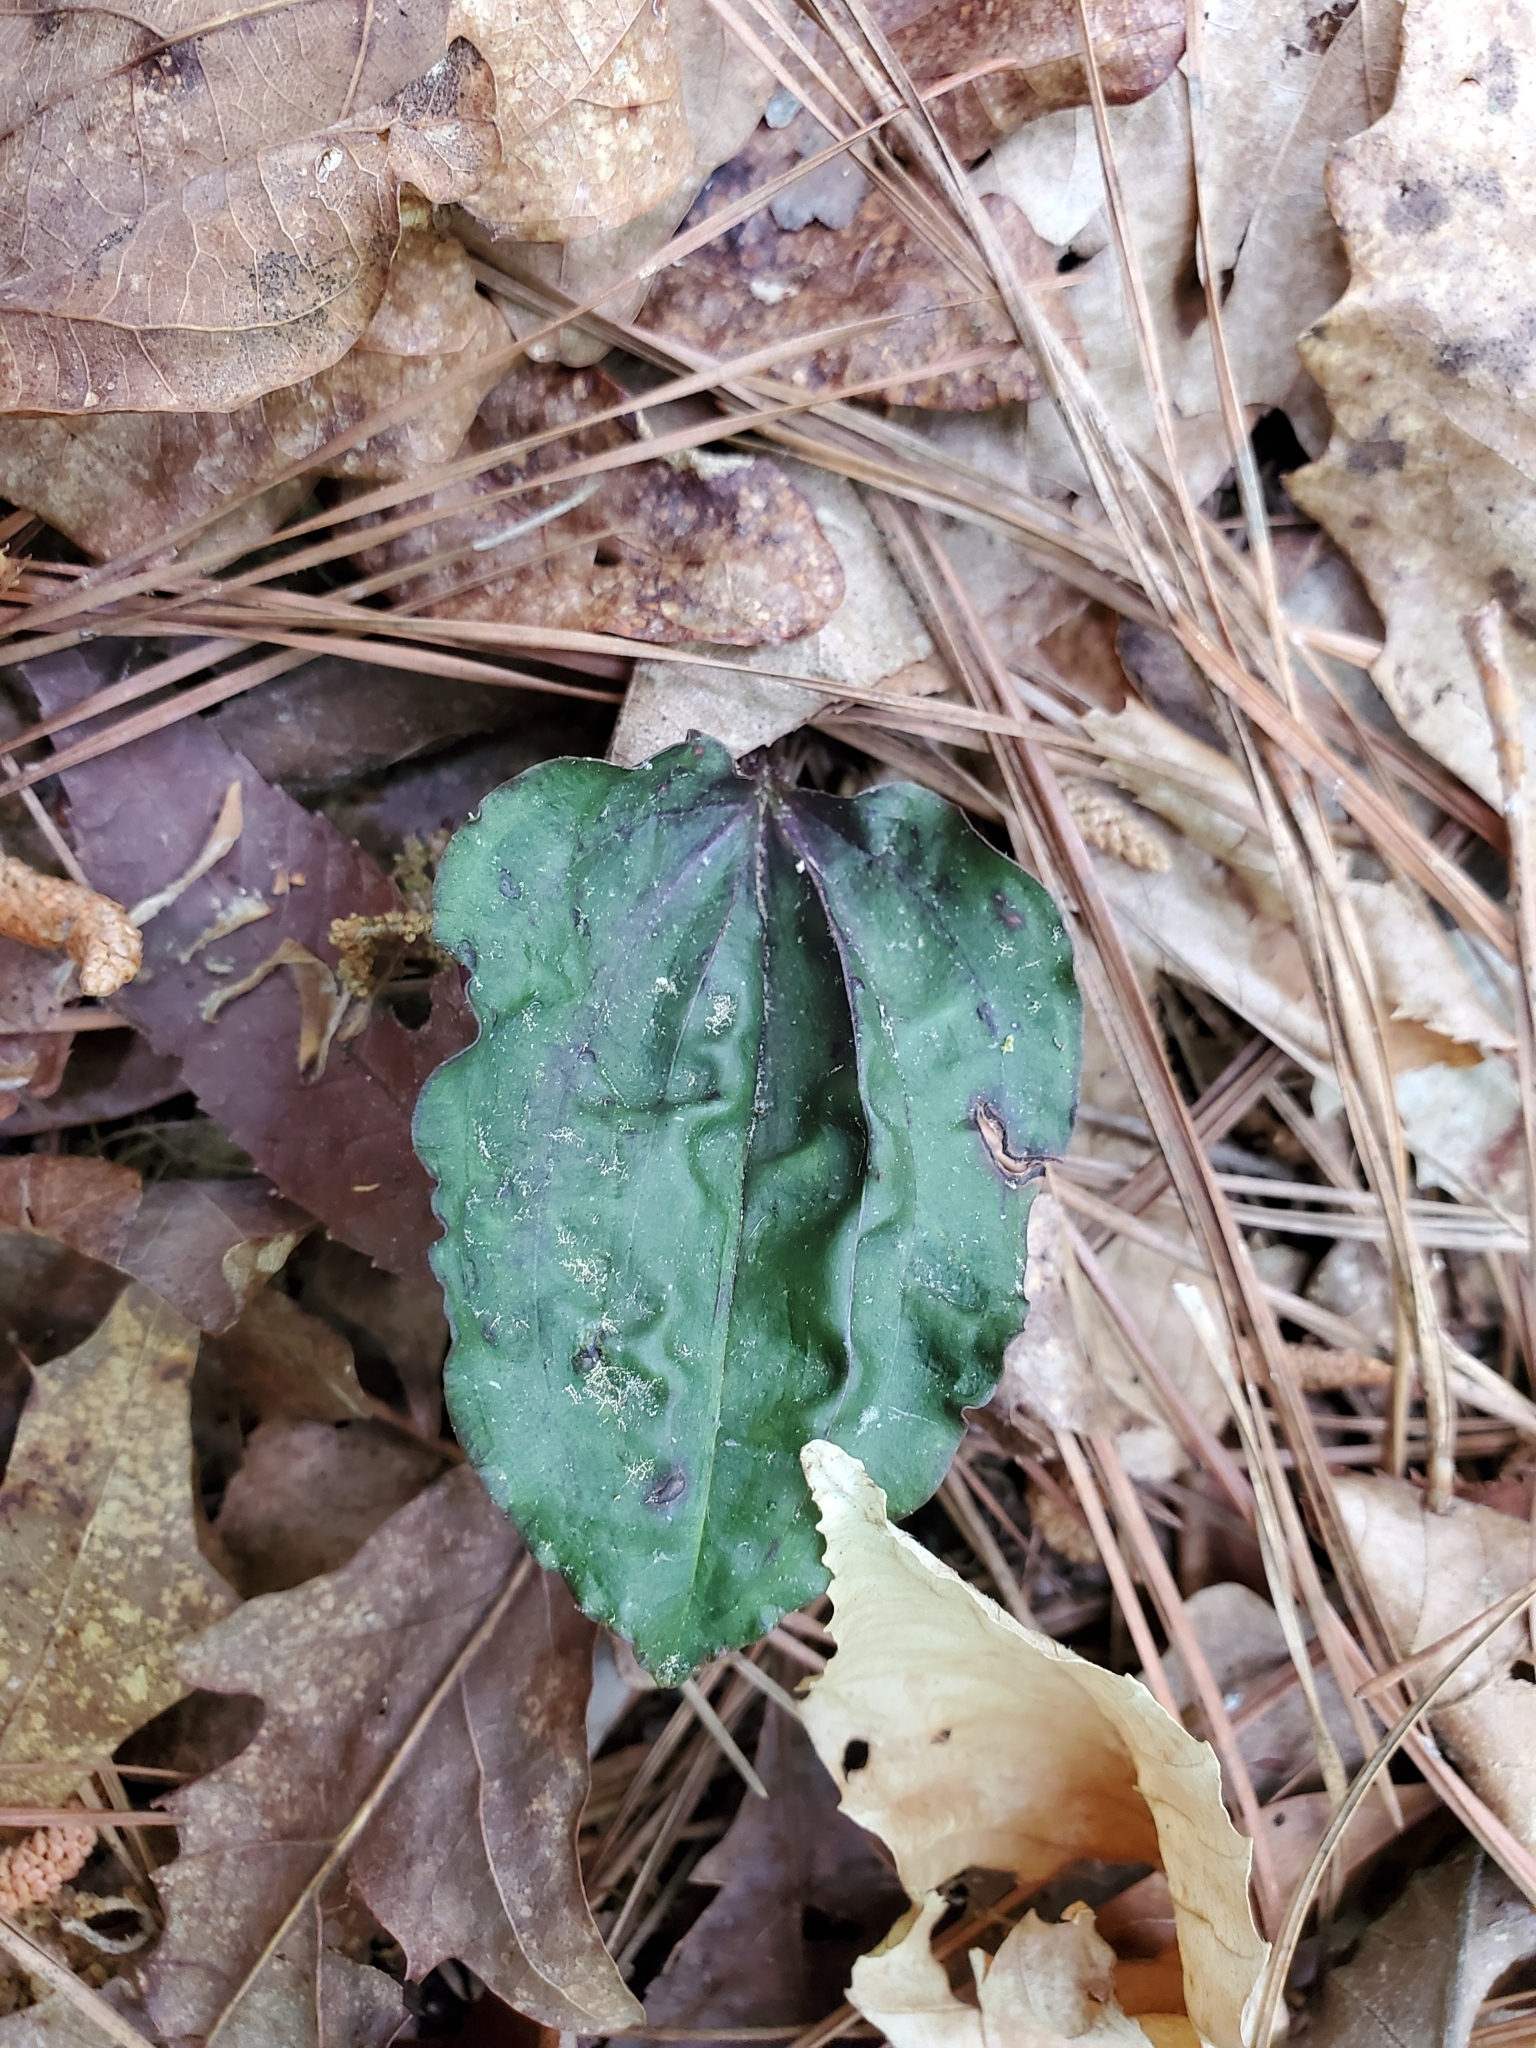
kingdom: Plantae
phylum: Tracheophyta
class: Liliopsida
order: Asparagales
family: Orchidaceae
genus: Tipularia
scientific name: Tipularia discolor
